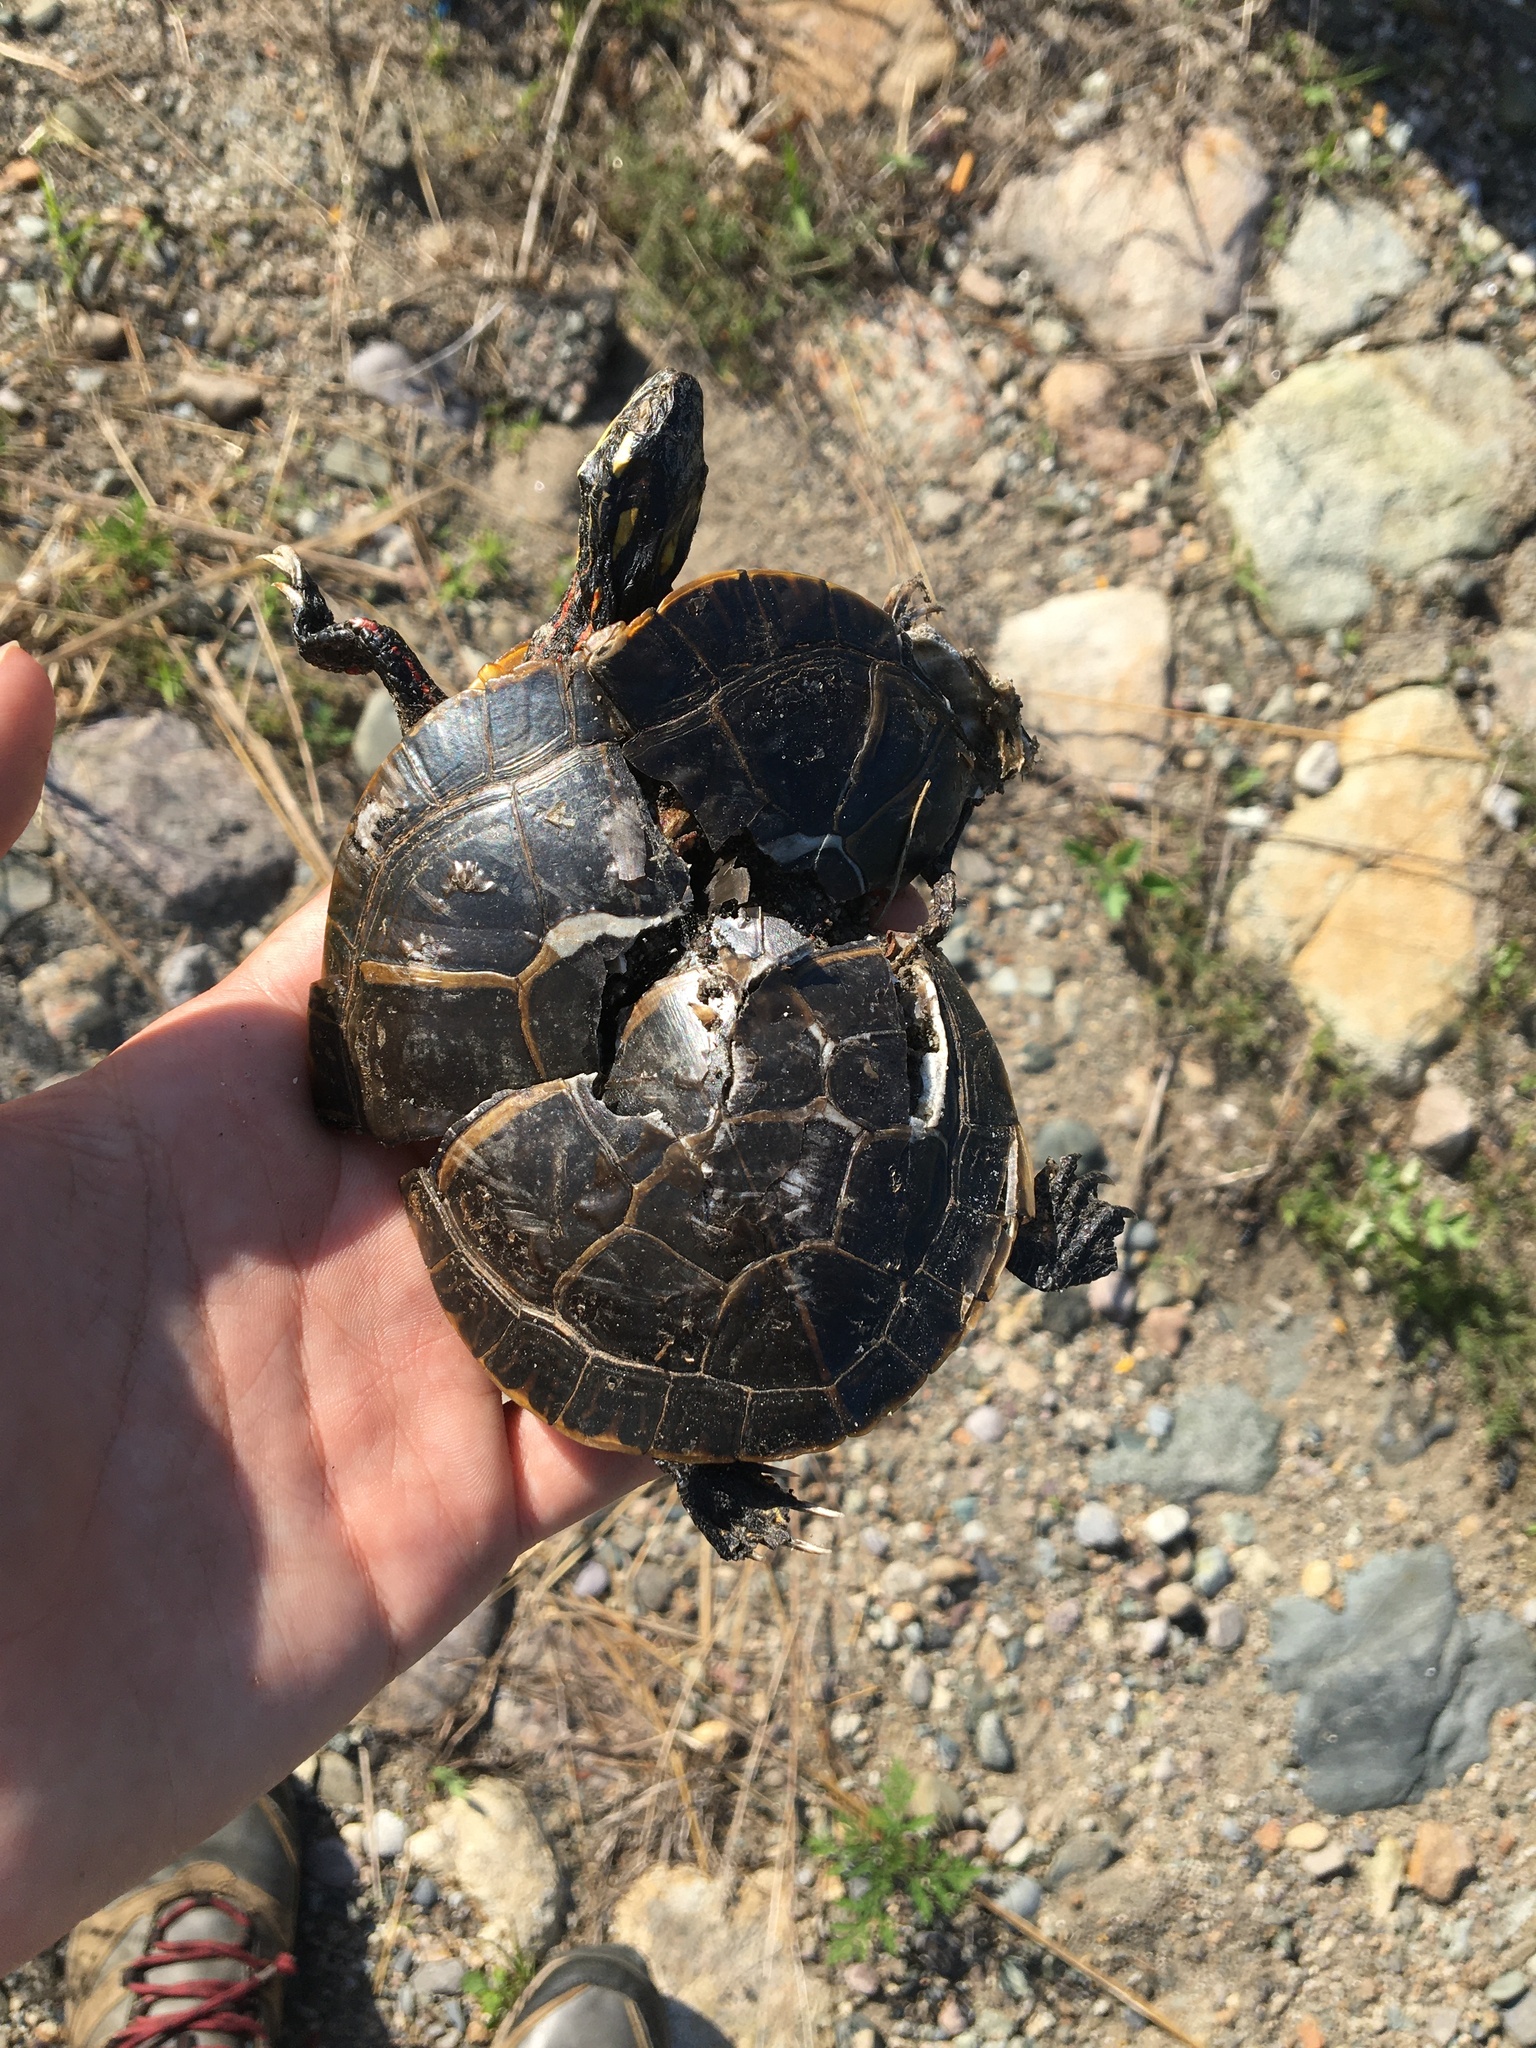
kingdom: Animalia
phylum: Chordata
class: Testudines
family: Emydidae
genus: Chrysemys
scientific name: Chrysemys picta
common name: Painted turtle
